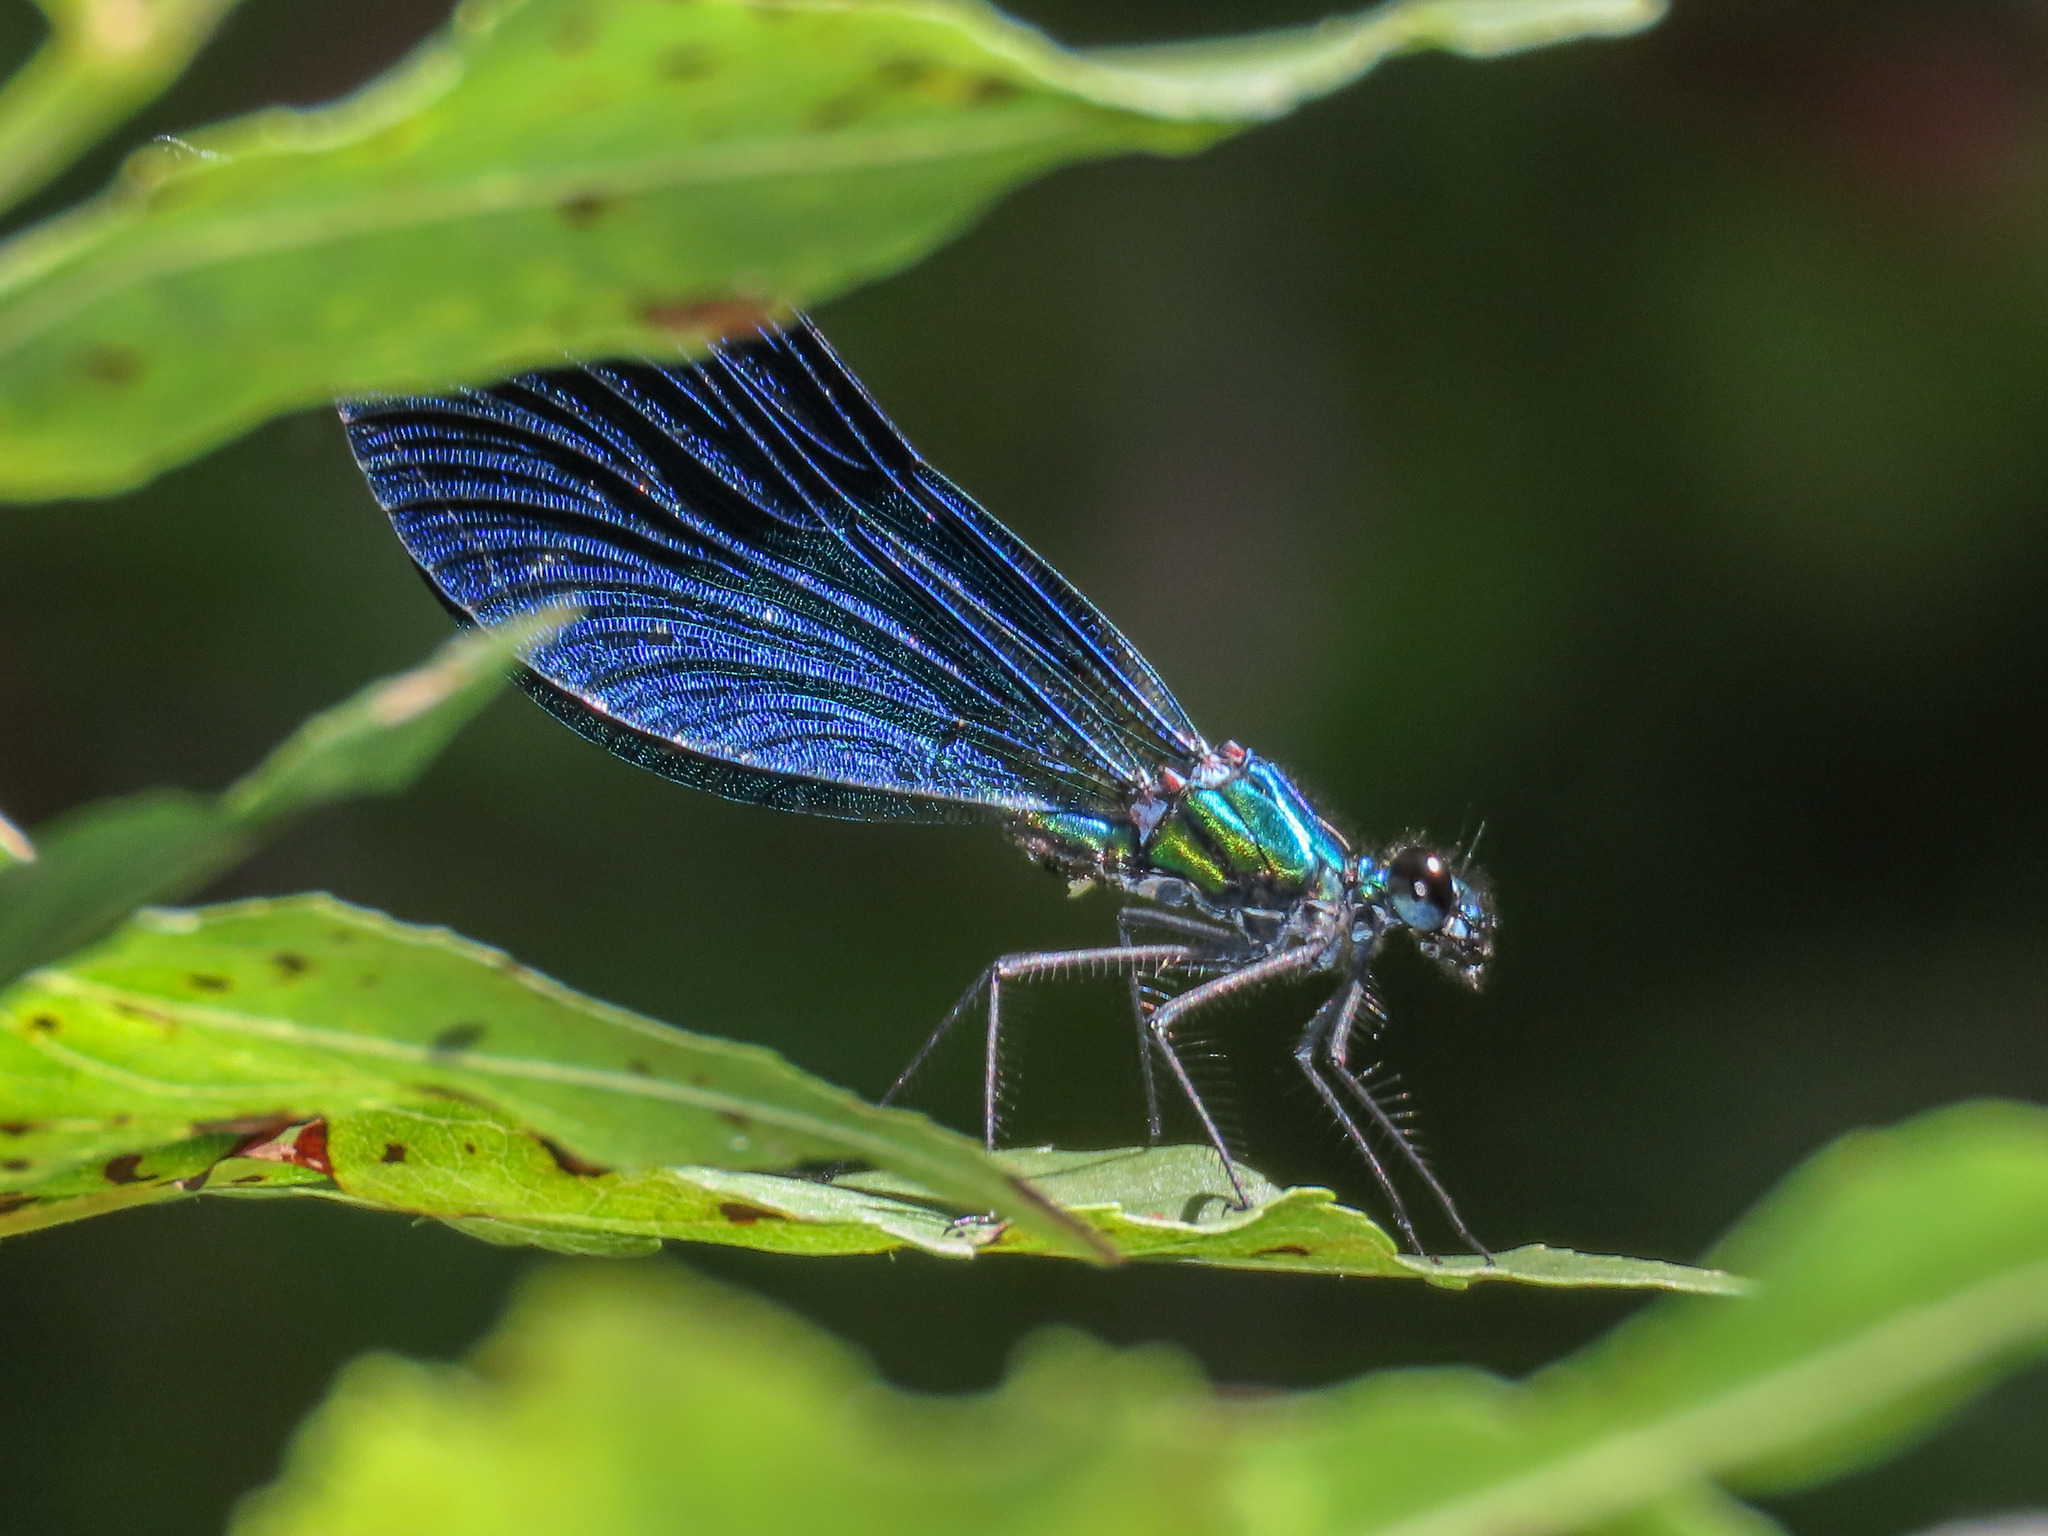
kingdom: Animalia
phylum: Arthropoda
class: Insecta
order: Odonata
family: Calopterygidae
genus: Calopteryx
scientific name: Calopteryx virgo
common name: Beautiful demoiselle
